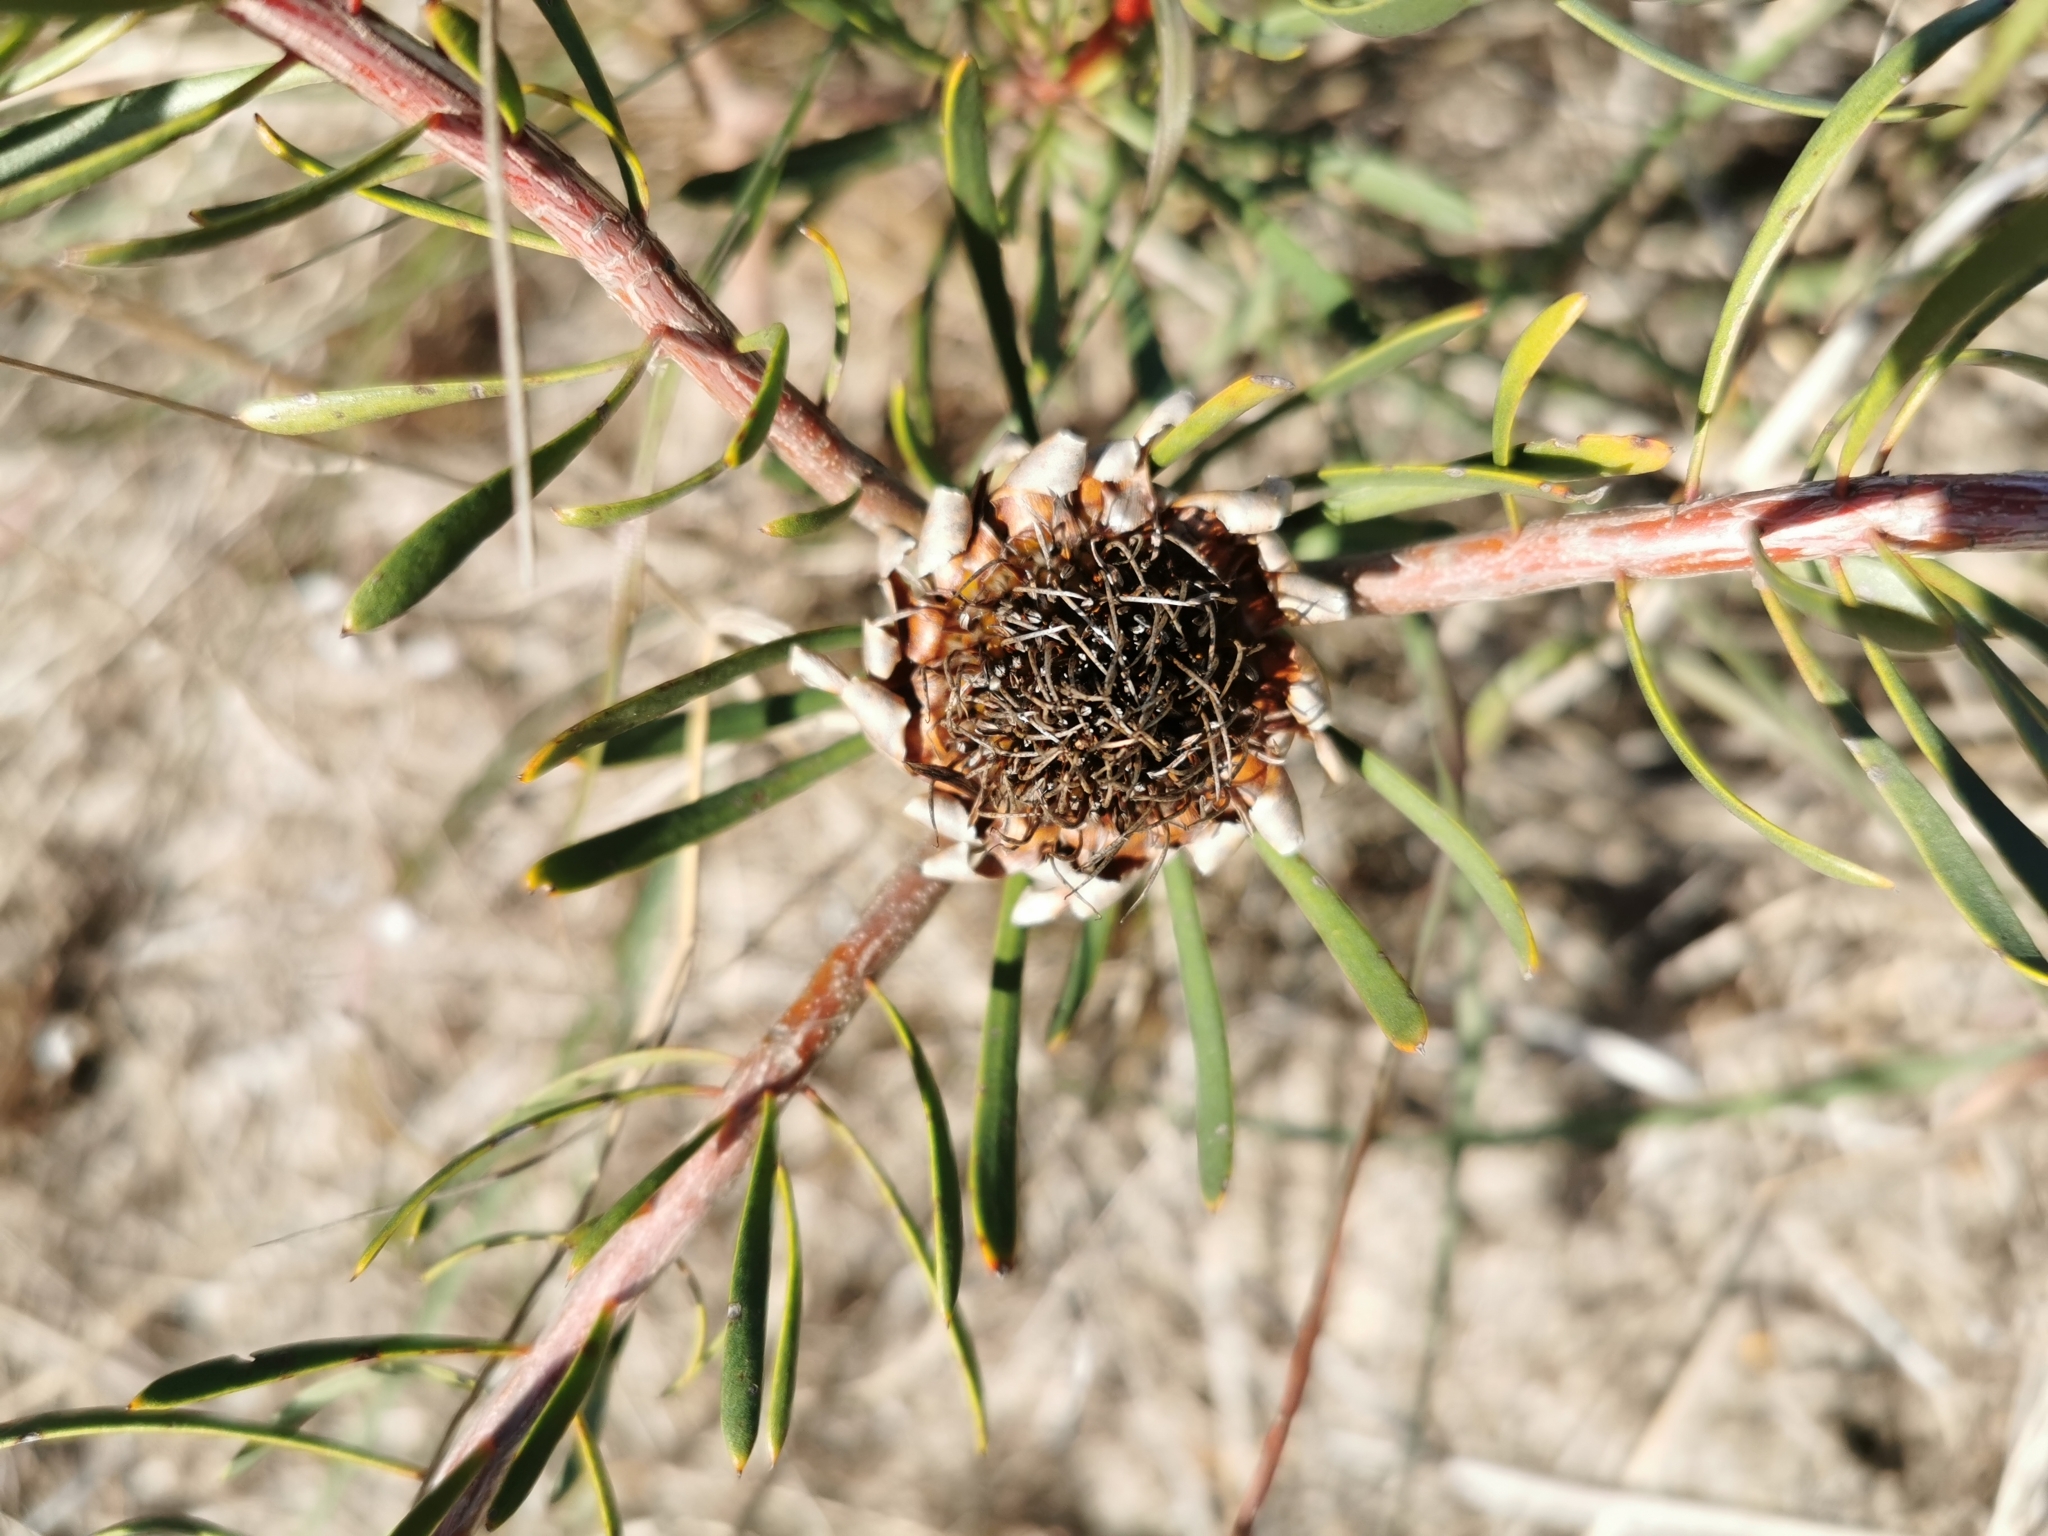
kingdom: Plantae
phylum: Tracheophyta
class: Magnoliopsida
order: Proteales
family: Proteaceae
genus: Protea
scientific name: Protea scolymocephala
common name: Thistle sugarbush
